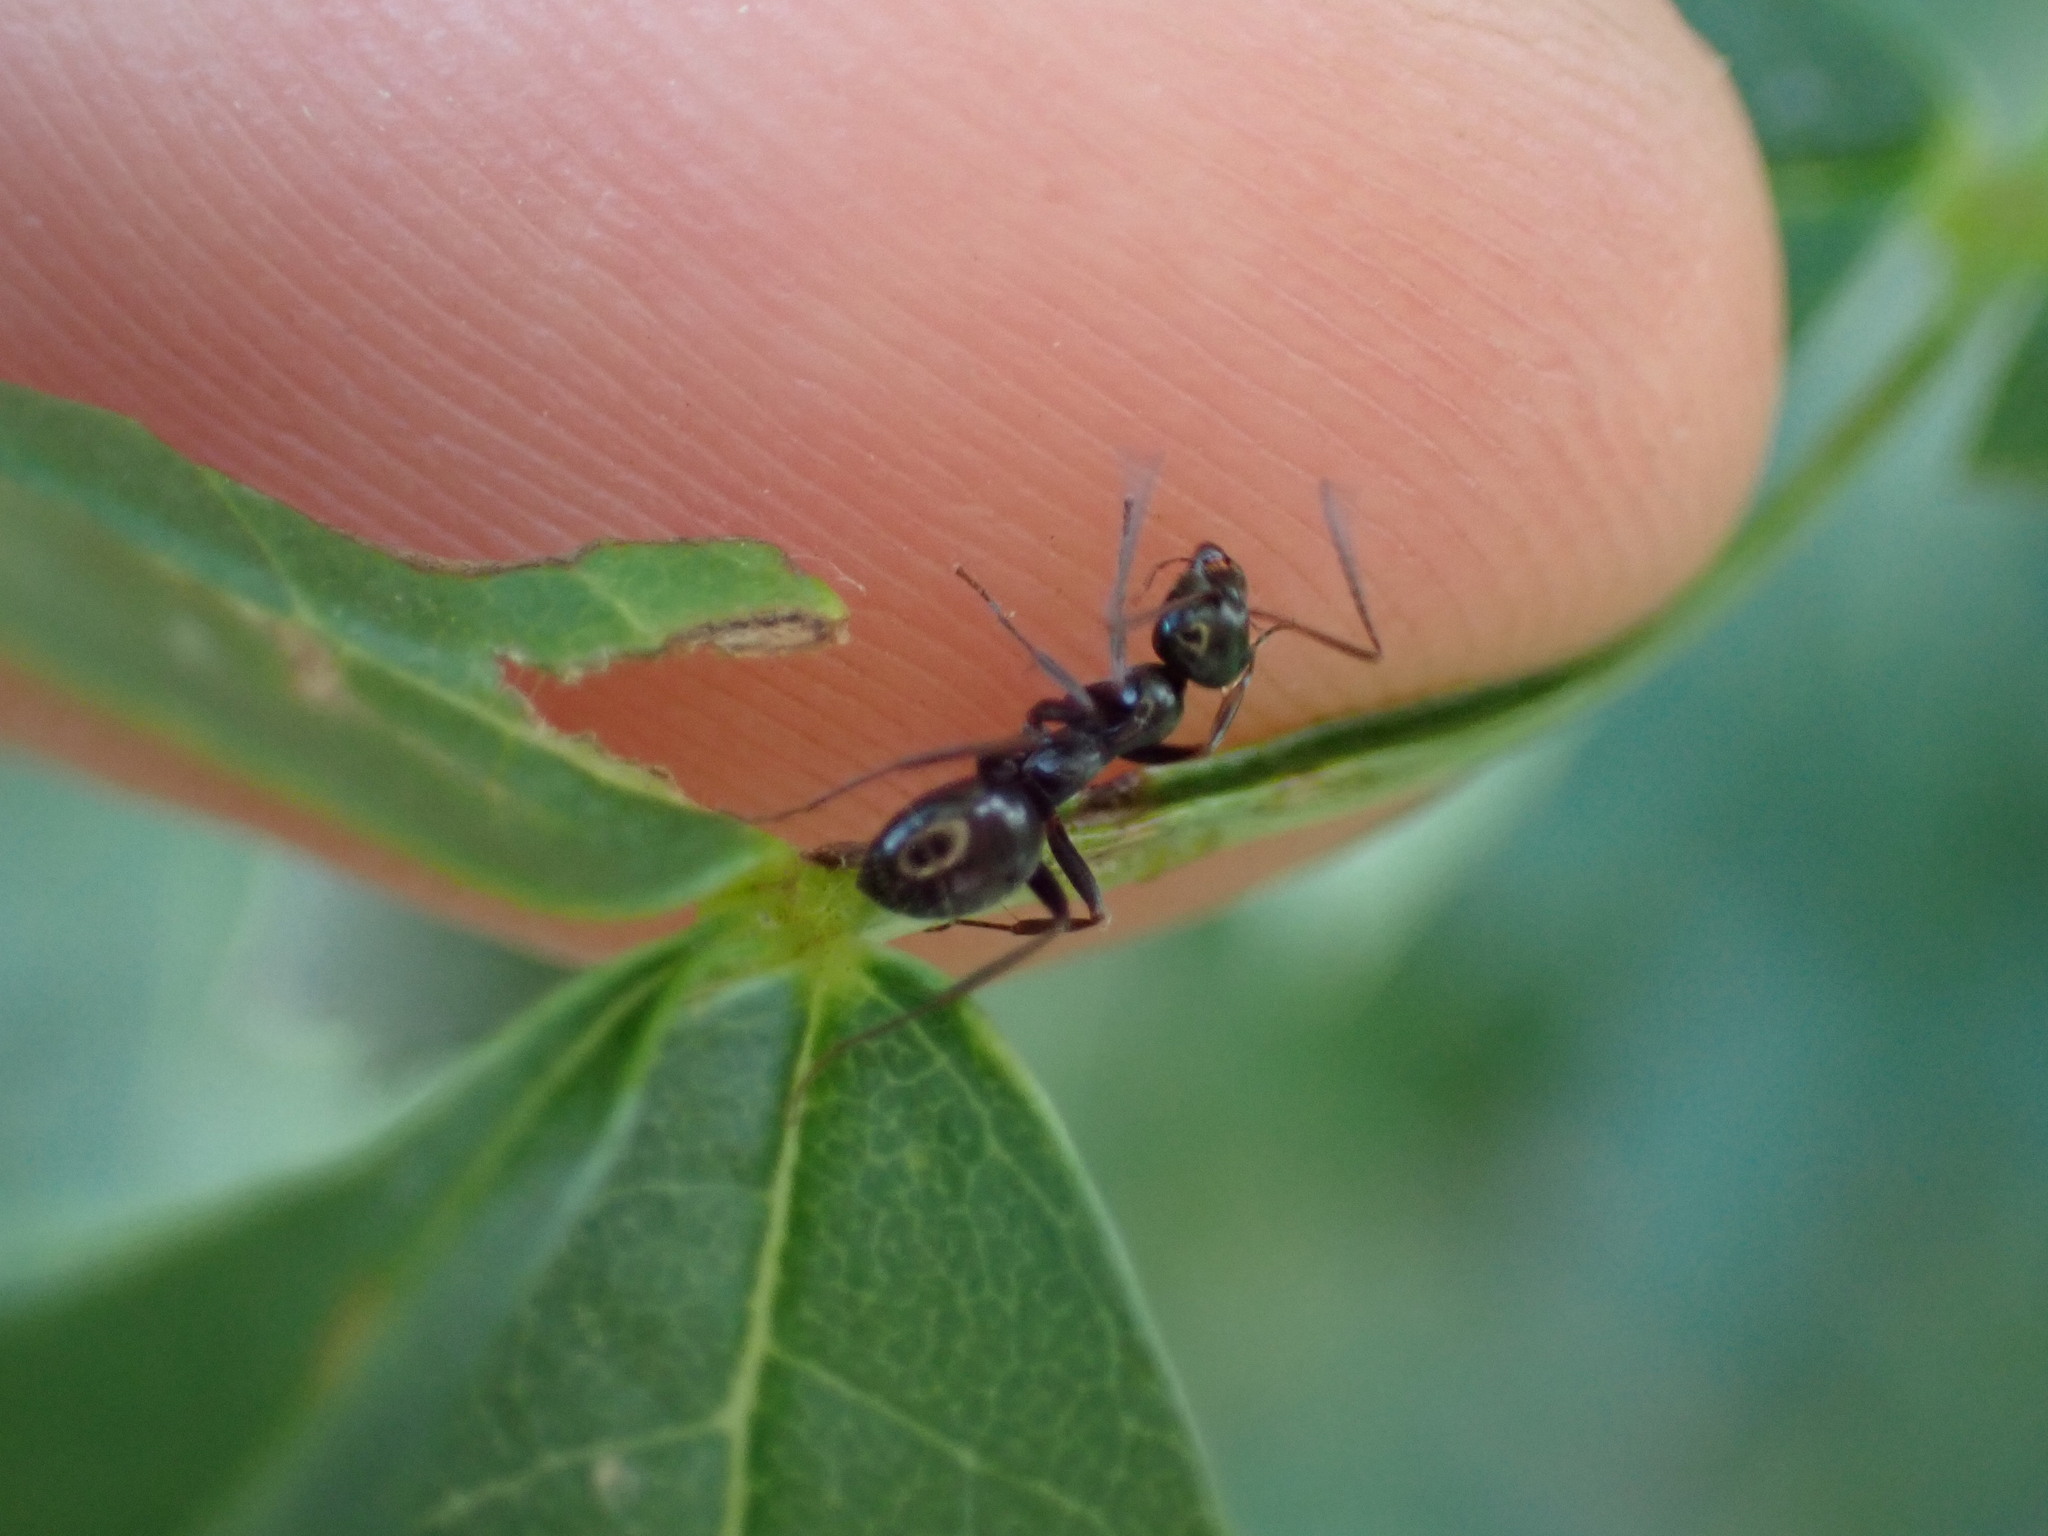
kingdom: Animalia
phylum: Arthropoda
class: Insecta
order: Hymenoptera
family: Formicidae
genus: Formica
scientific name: Formica gagates
